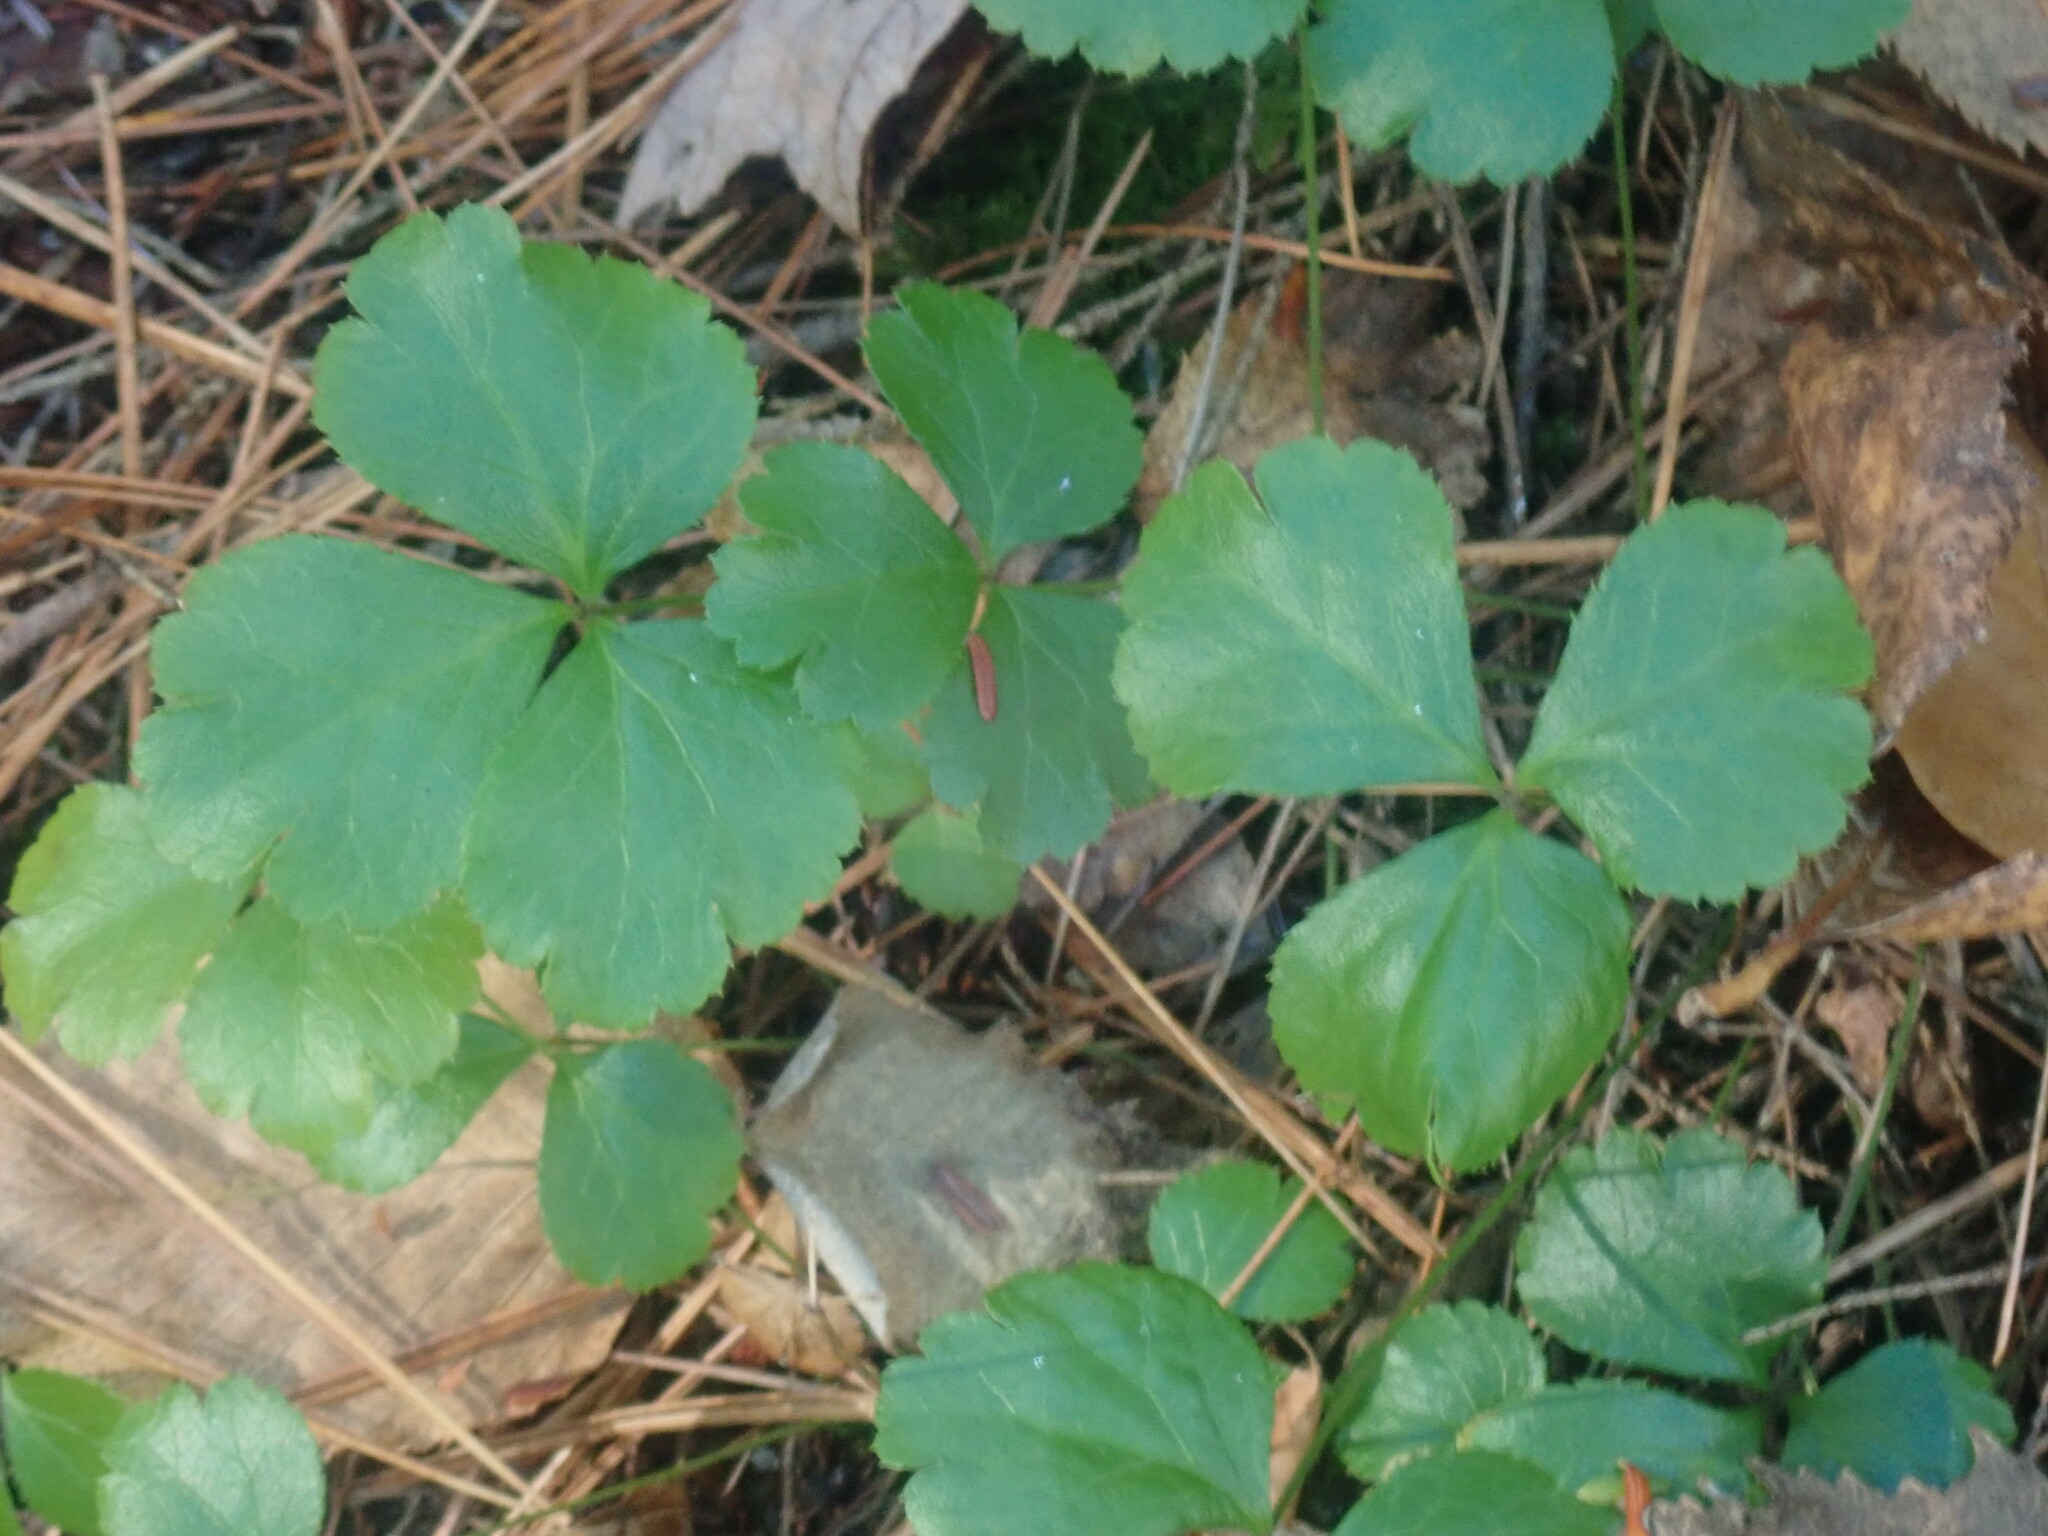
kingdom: Plantae
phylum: Tracheophyta
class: Magnoliopsida
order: Ranunculales
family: Ranunculaceae
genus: Coptis
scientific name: Coptis trifolia
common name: Canker-root
